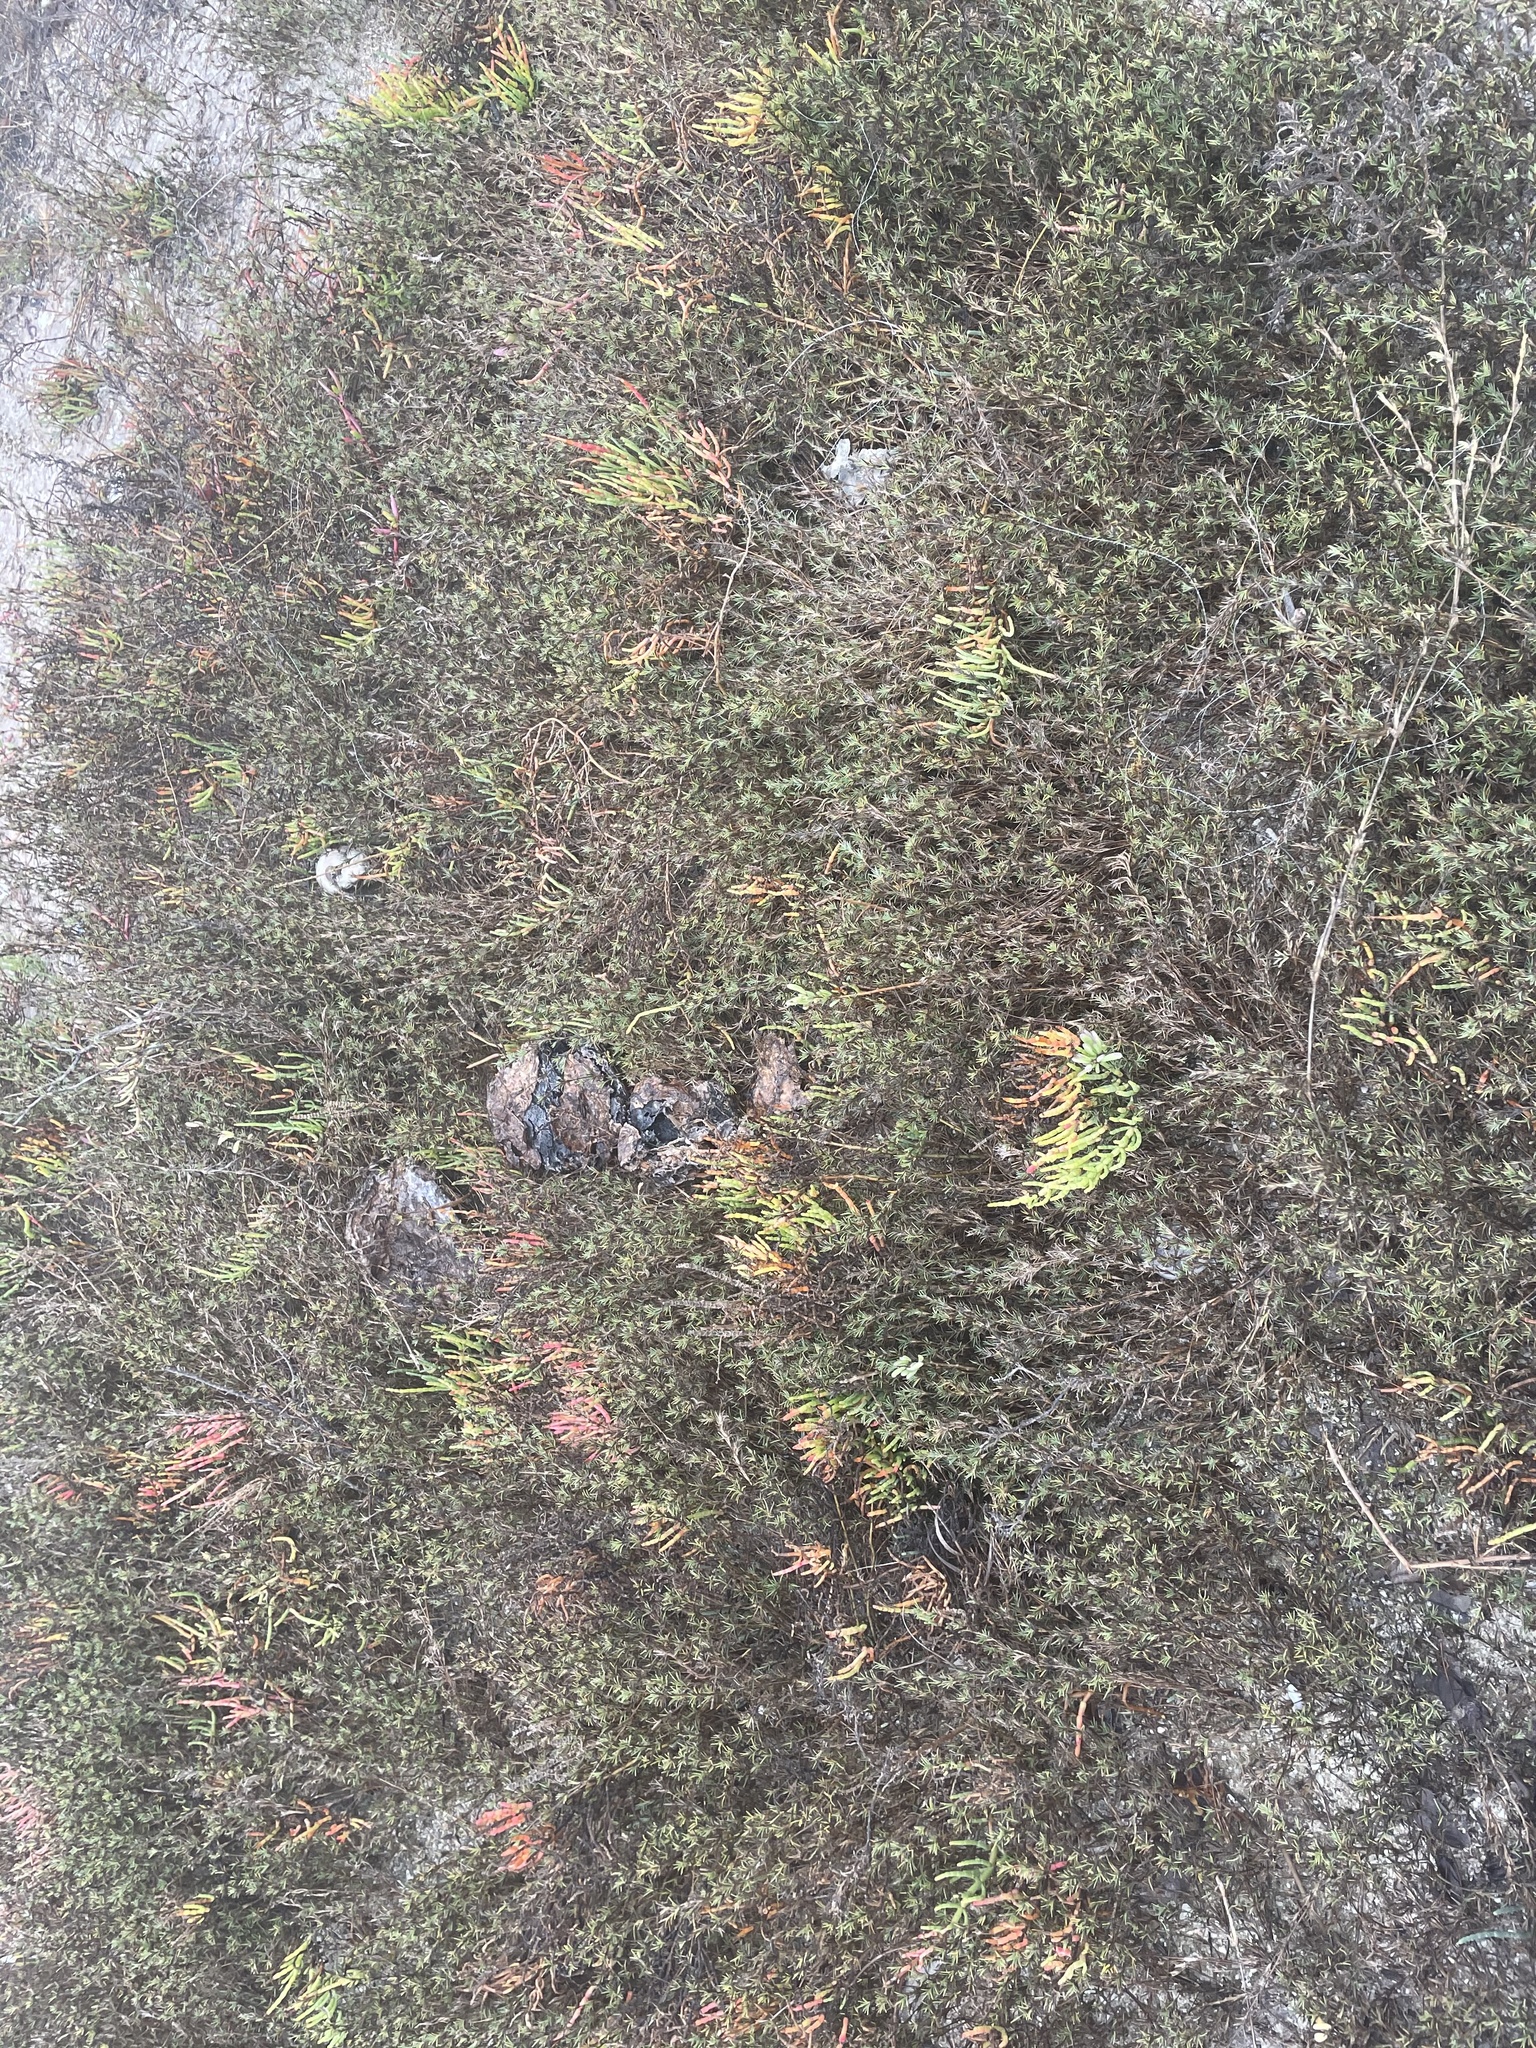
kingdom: Plantae
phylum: Tracheophyta
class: Magnoliopsida
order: Caryophyllales
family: Amaranthaceae
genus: Salicornia
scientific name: Salicornia virginica
